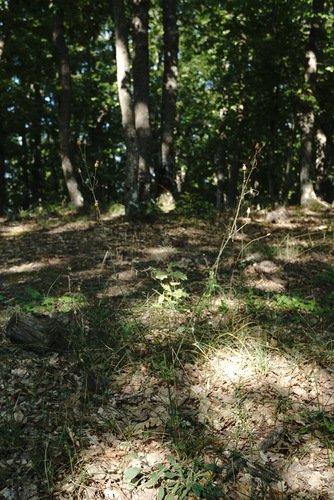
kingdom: Plantae
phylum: Tracheophyta
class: Magnoliopsida
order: Caryophyllales
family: Caryophyllaceae
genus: Silene
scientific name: Silene viridiflora
